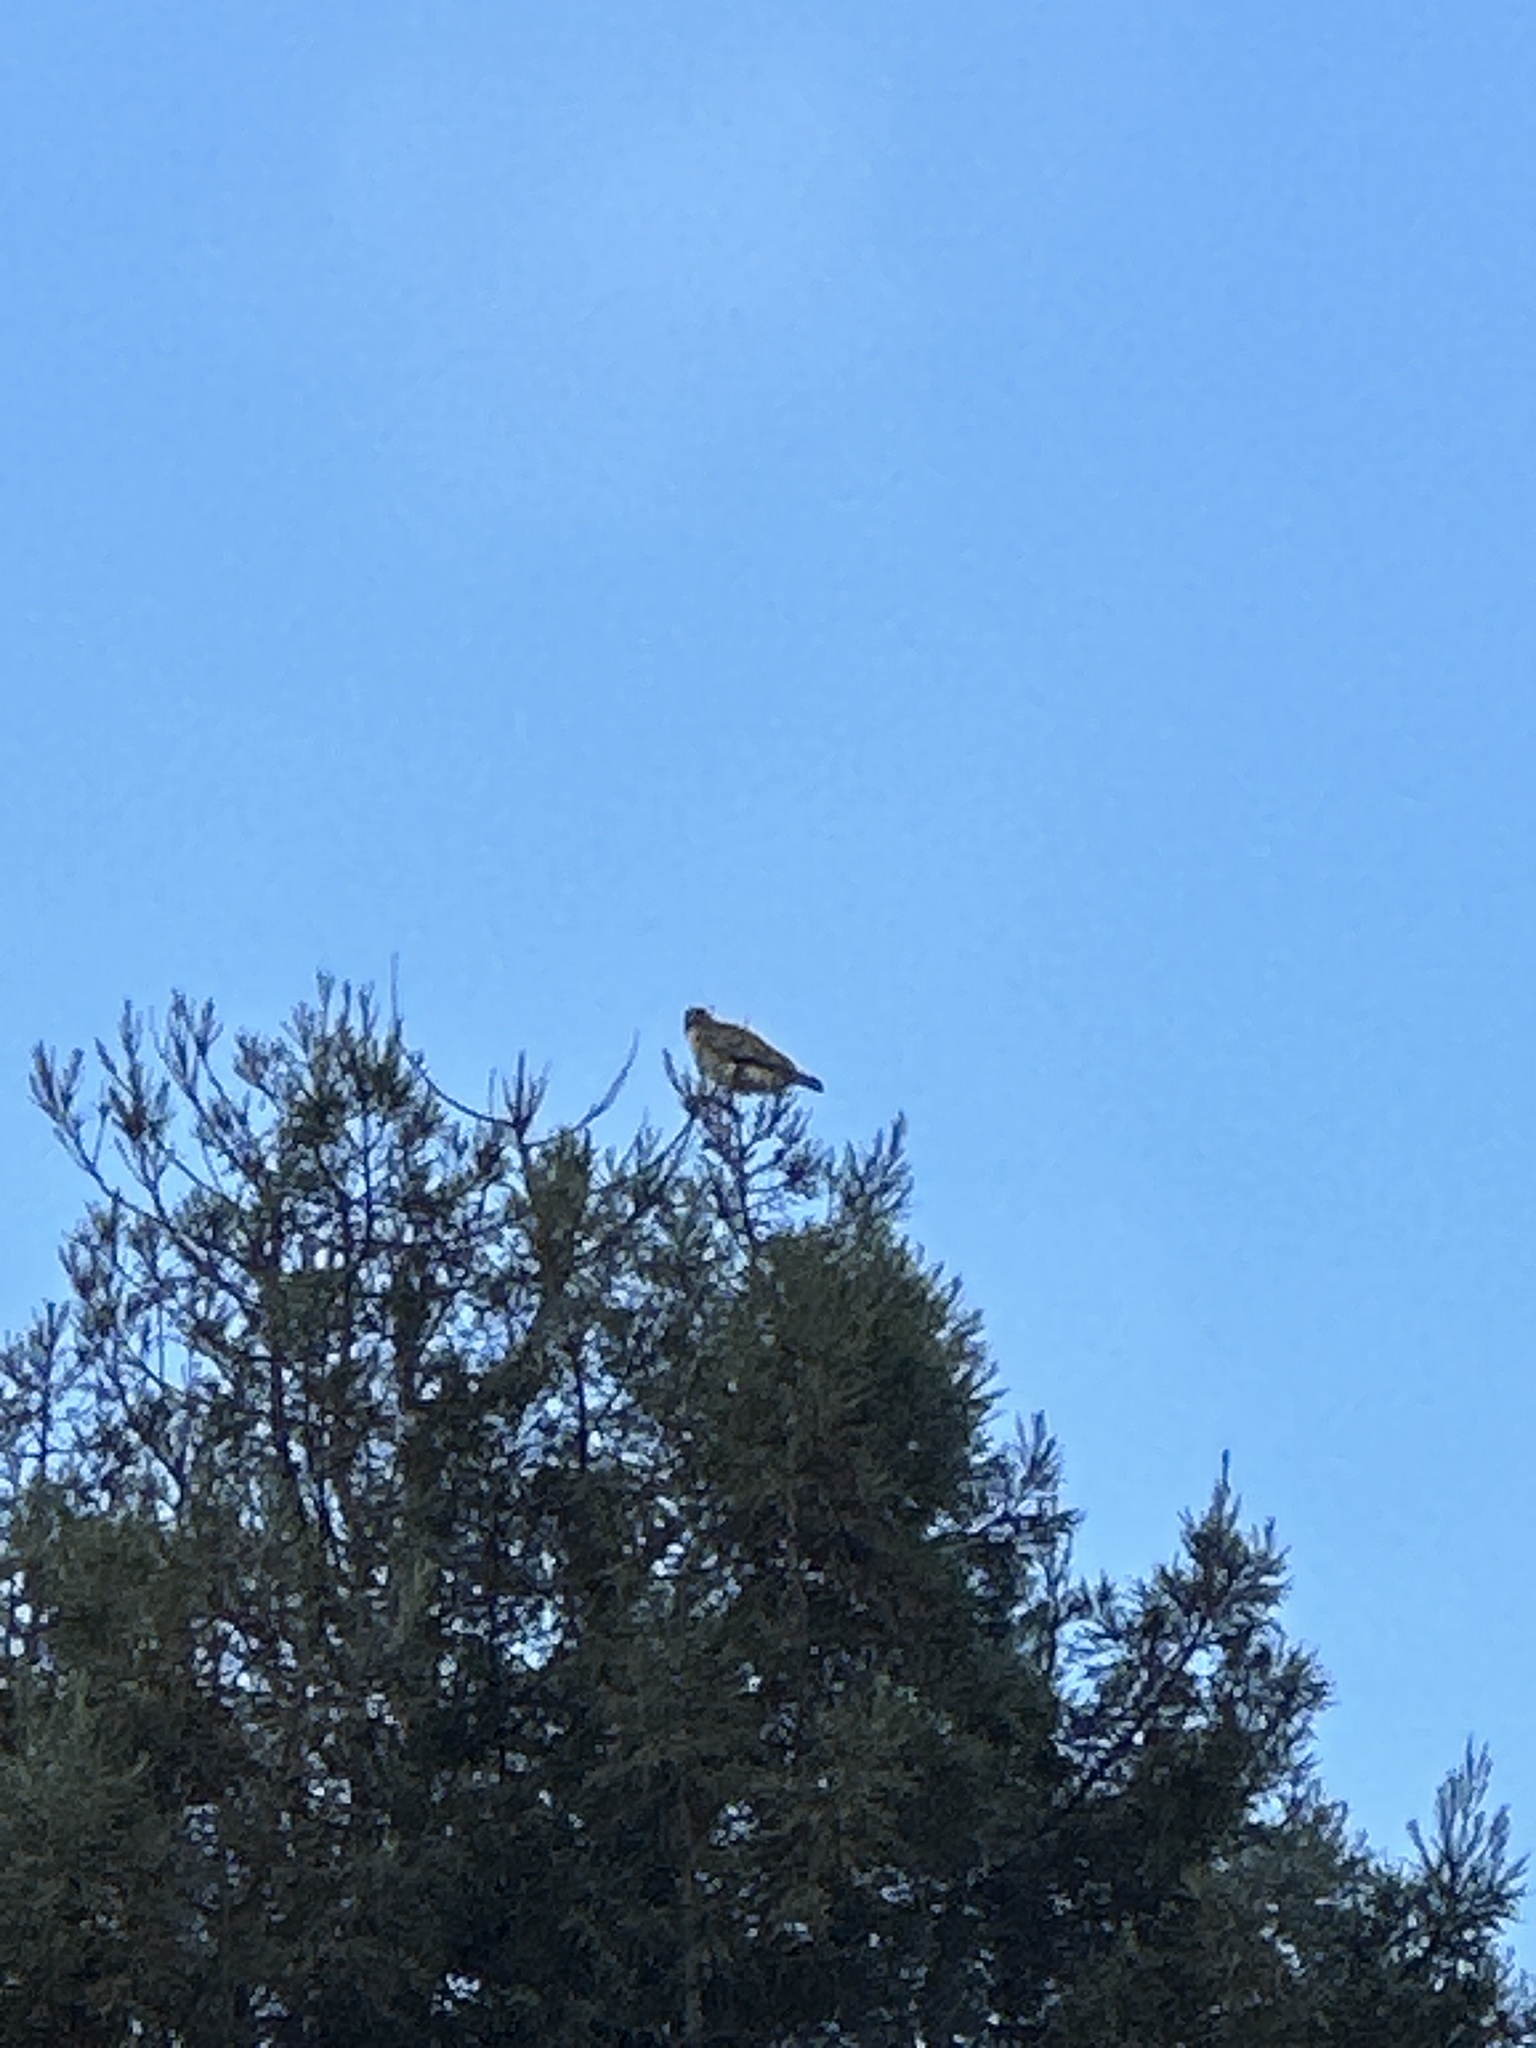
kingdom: Animalia
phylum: Chordata
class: Aves
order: Accipitriformes
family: Accipitridae
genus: Buteo
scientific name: Buteo jamaicensis
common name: Red-tailed hawk
